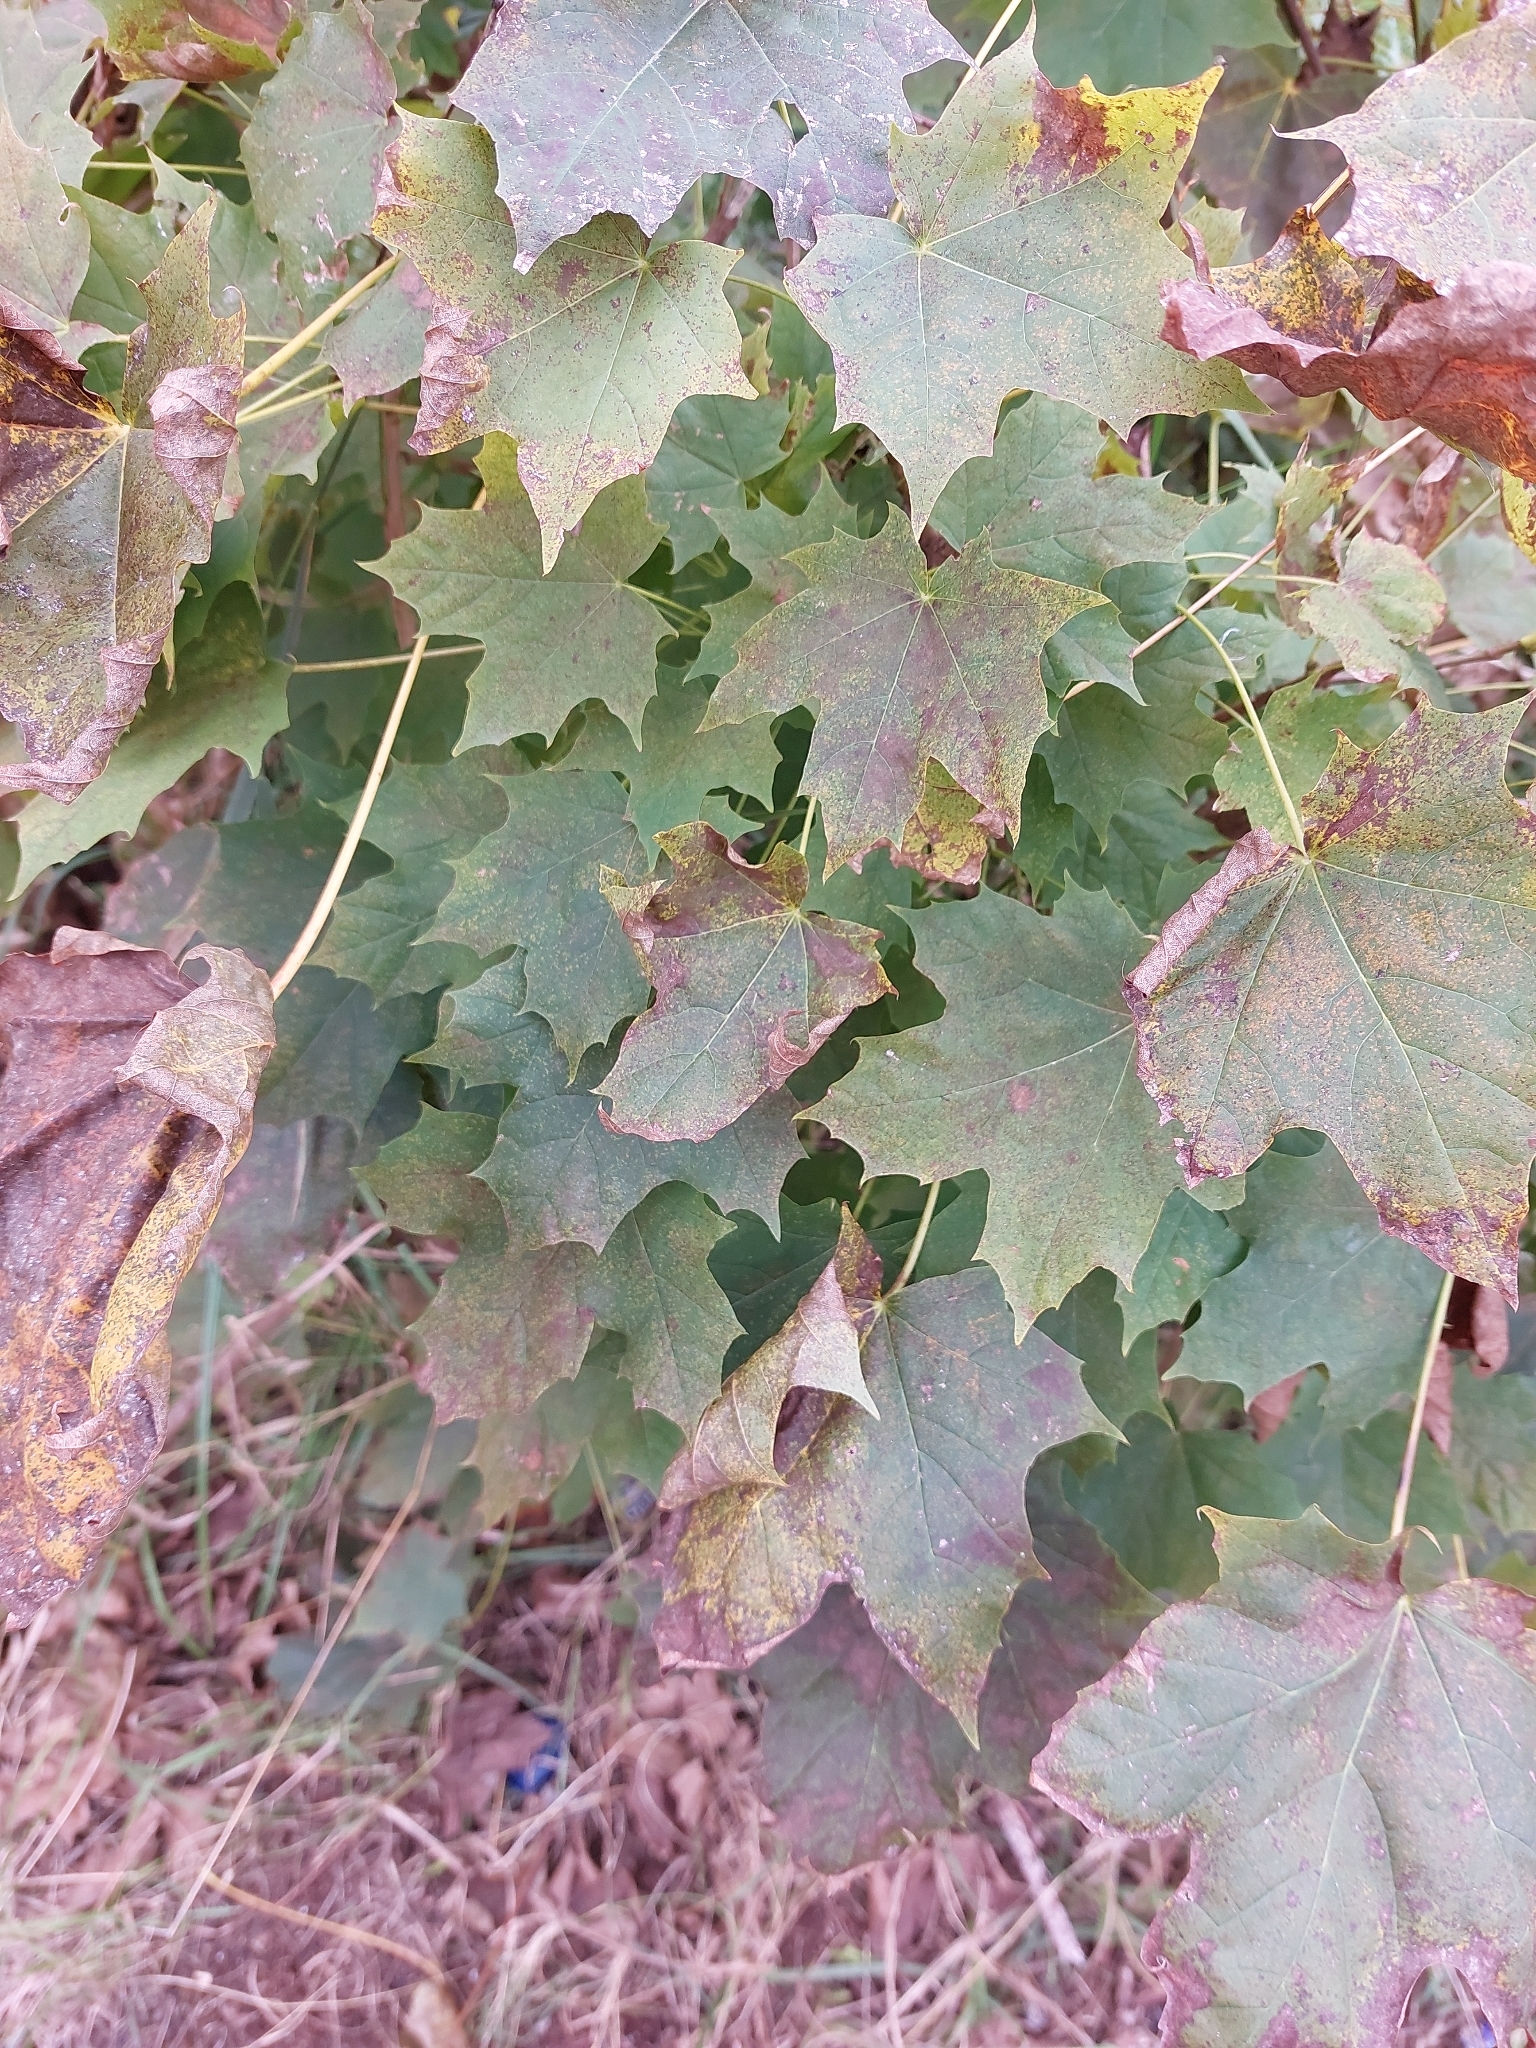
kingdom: Plantae
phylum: Tracheophyta
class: Magnoliopsida
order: Sapindales
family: Sapindaceae
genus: Acer
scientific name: Acer platanoides
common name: Norway maple
